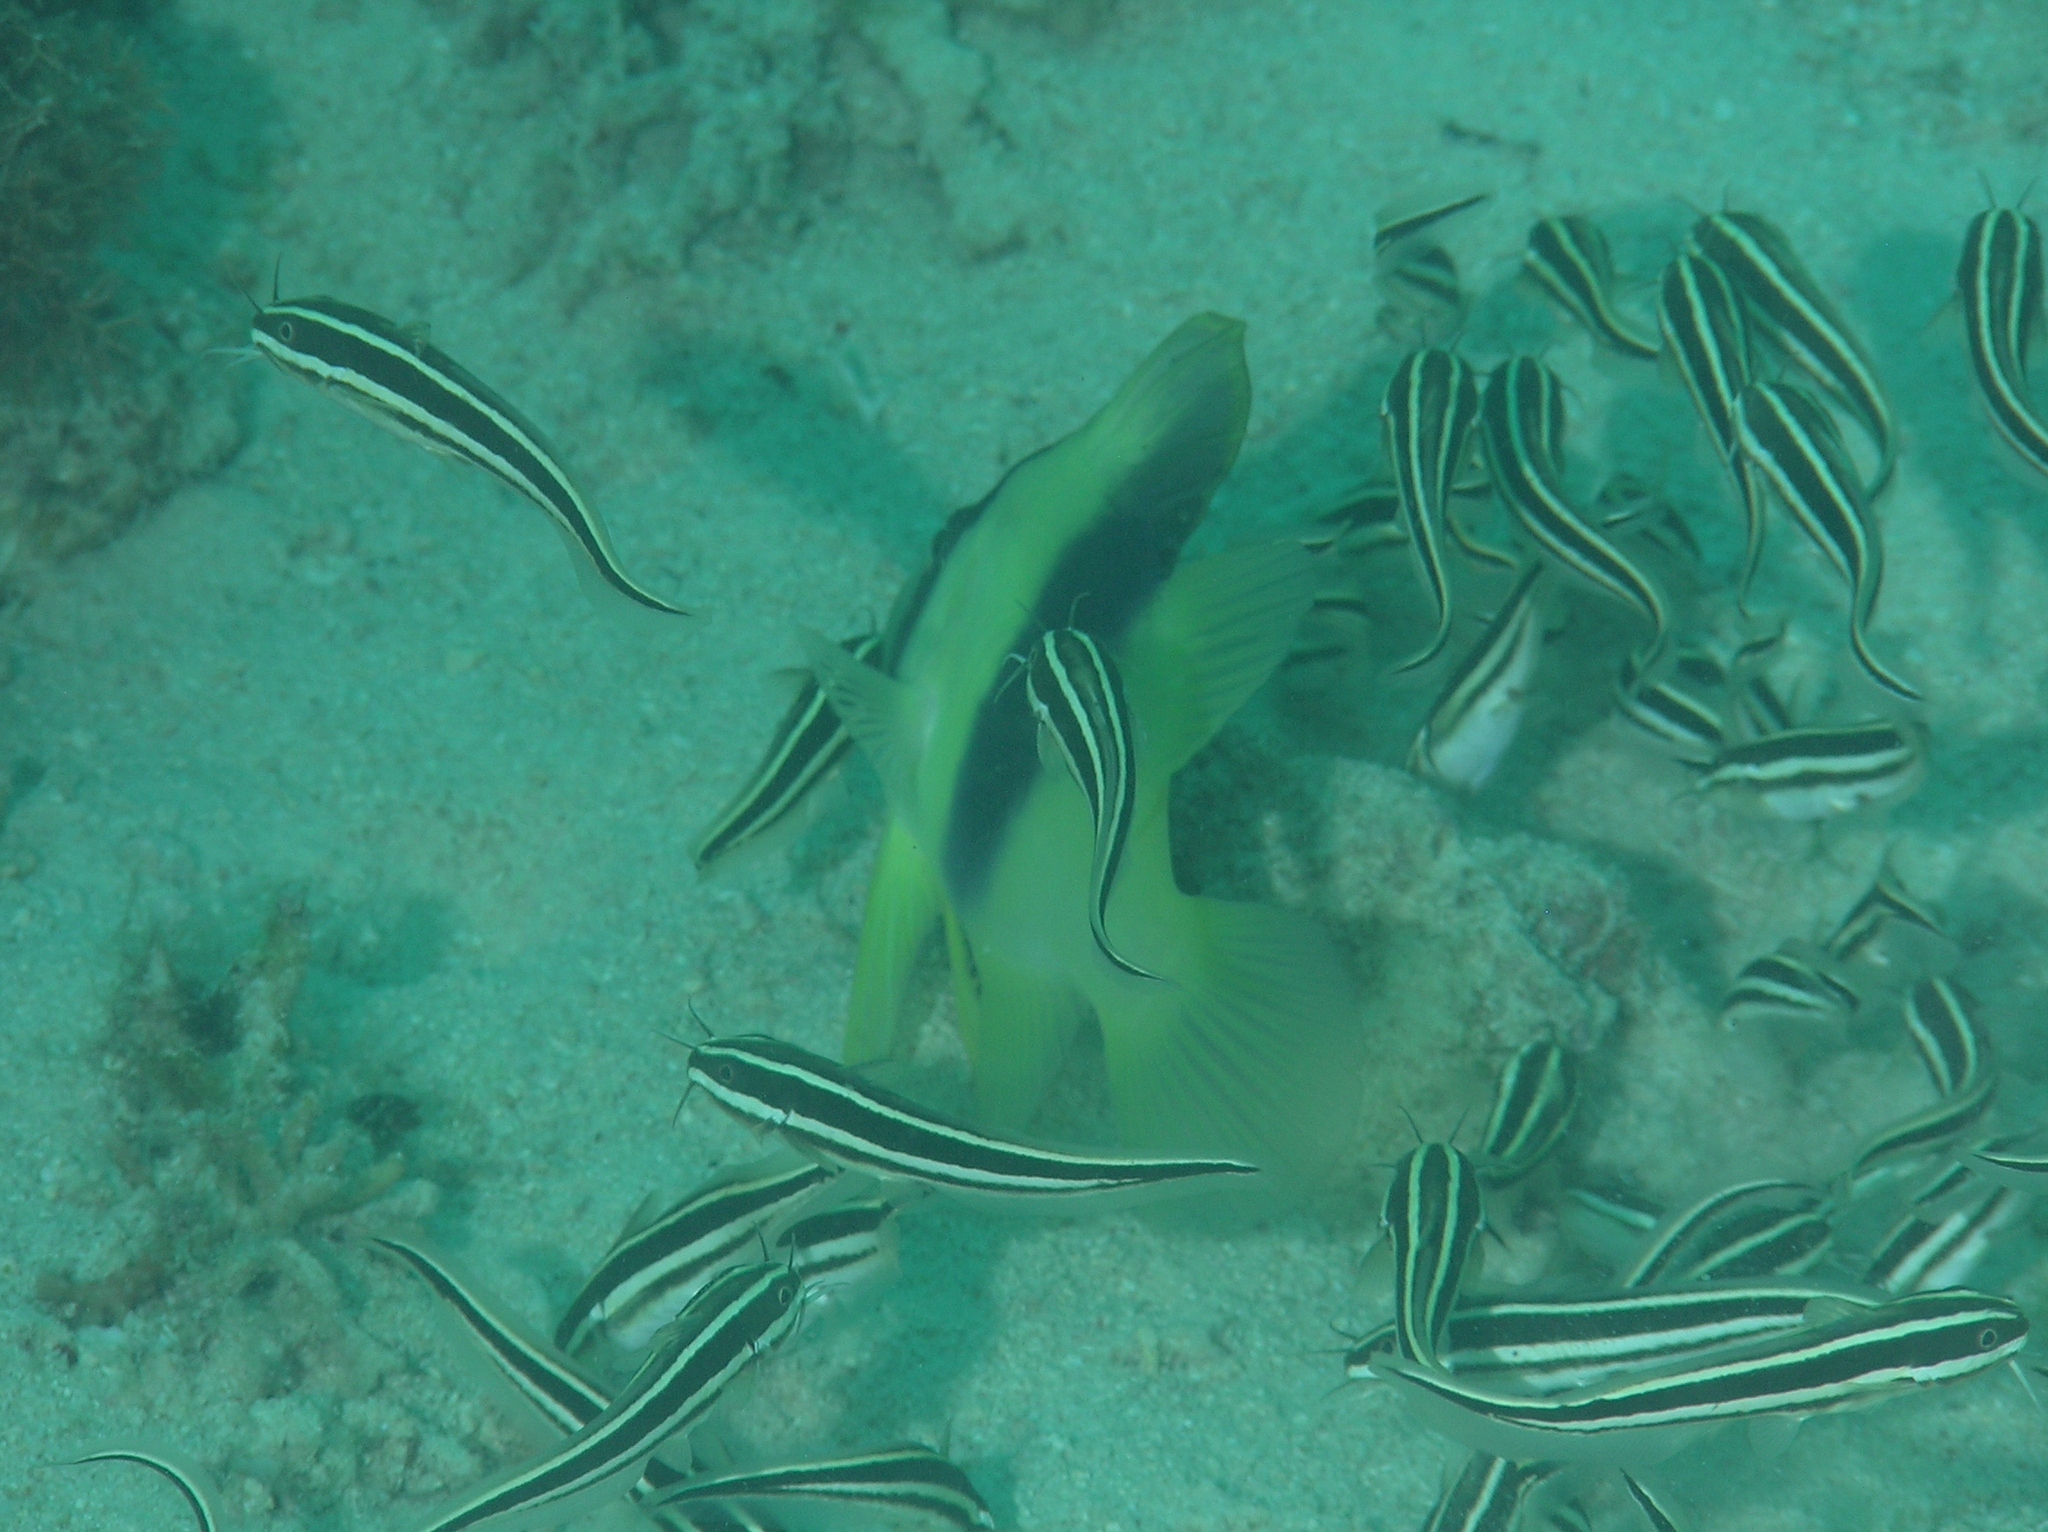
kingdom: Animalia
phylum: Chordata
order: Siluriformes
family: Plotosidae
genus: Plotosus
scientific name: Plotosus lineatus
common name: Striped eel catfish
